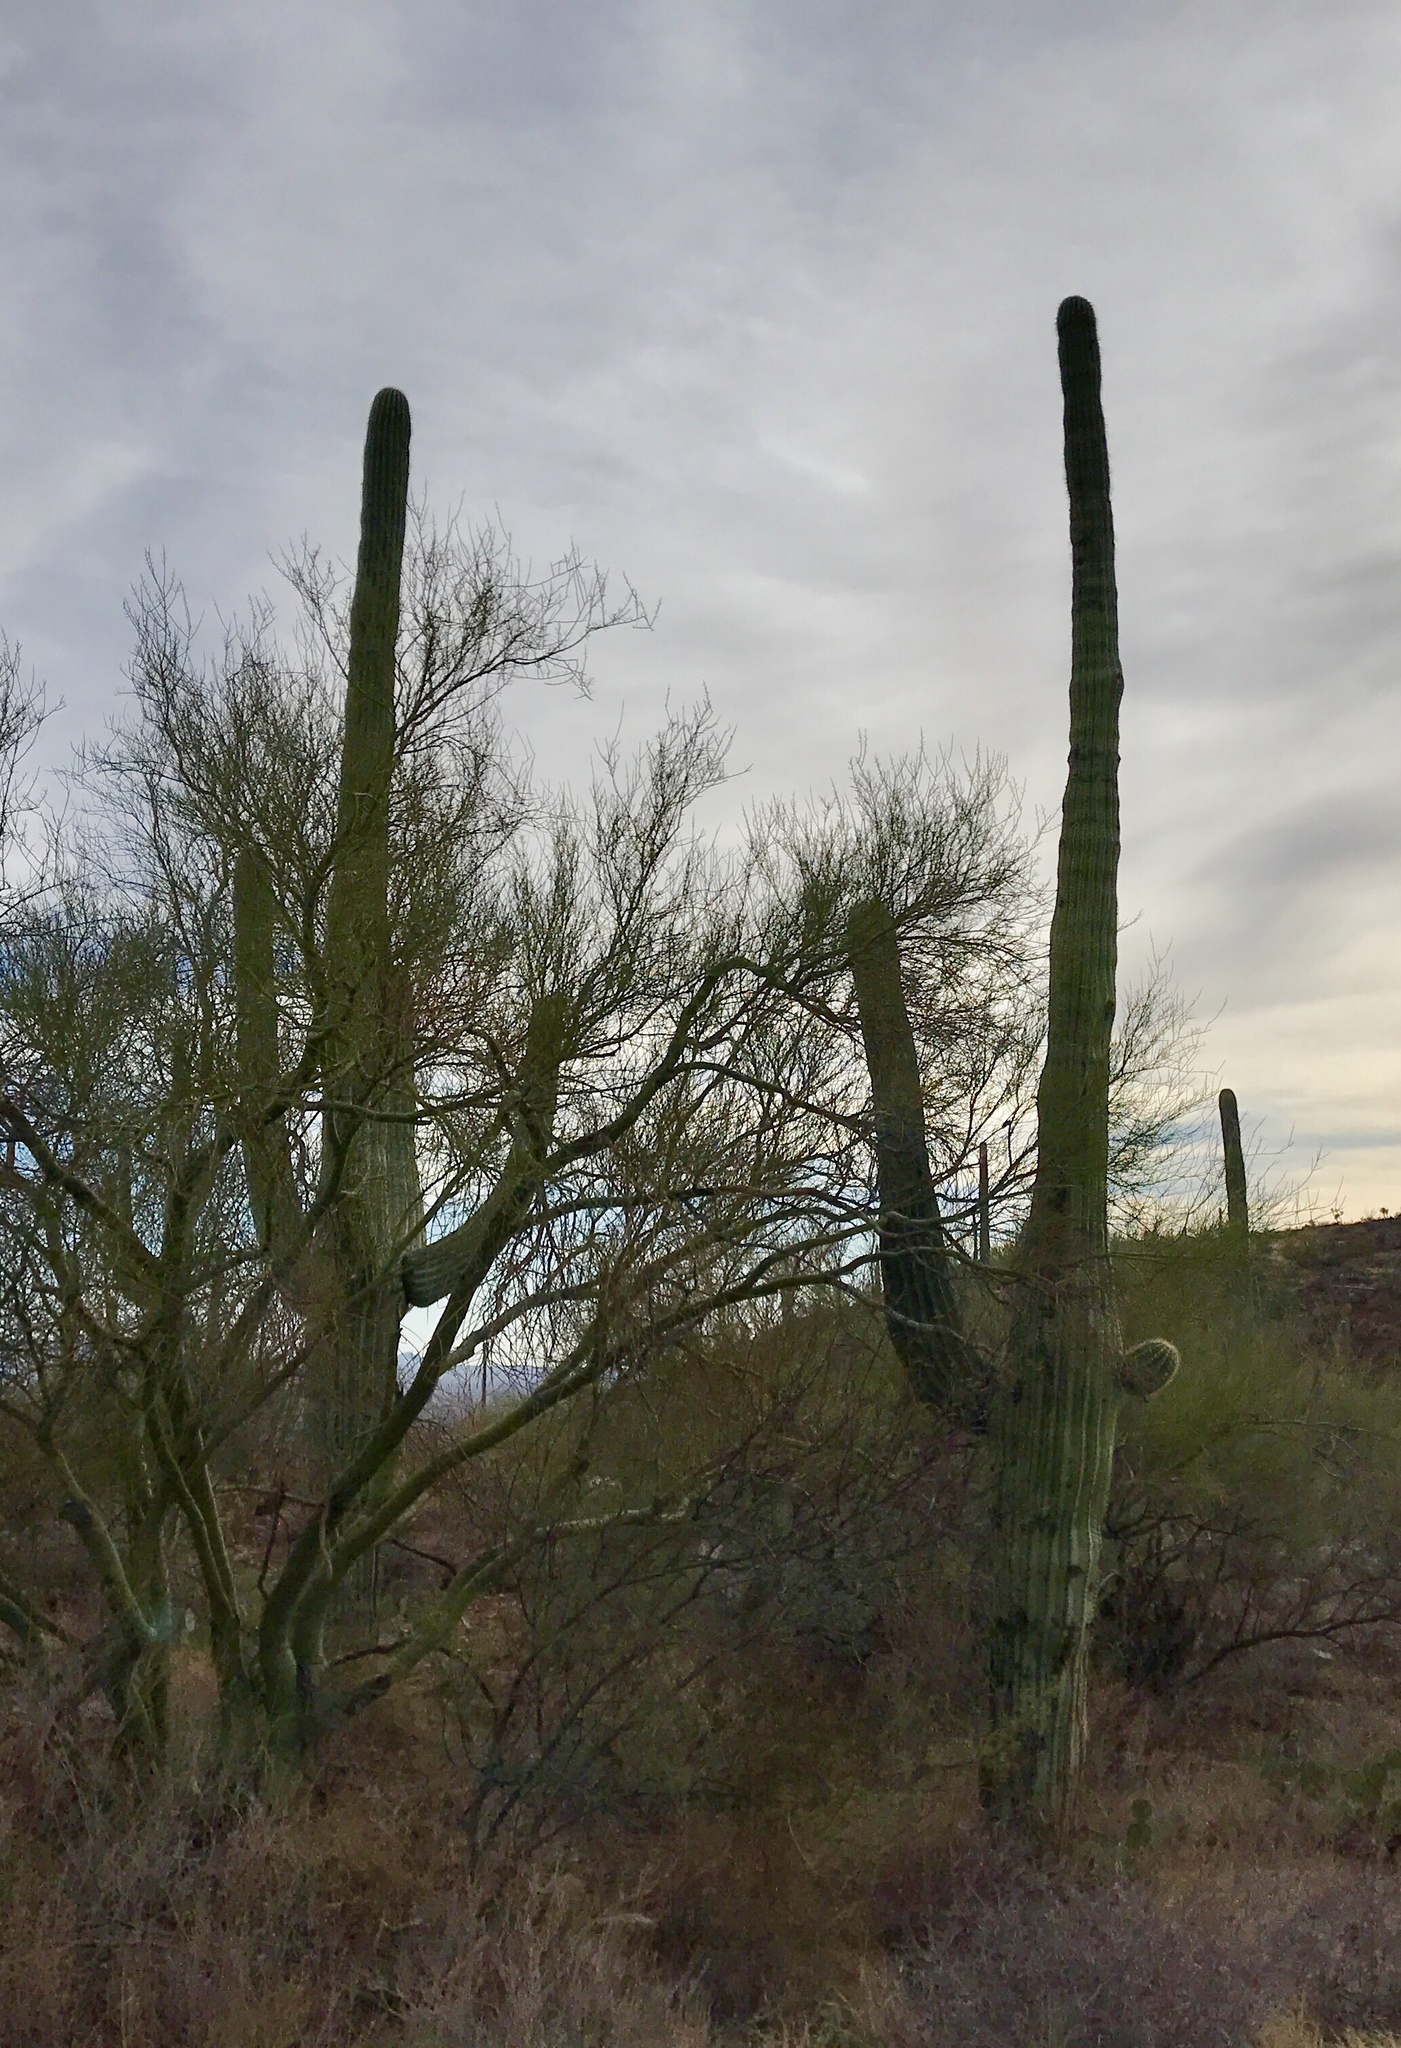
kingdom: Plantae
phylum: Tracheophyta
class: Magnoliopsida
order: Caryophyllales
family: Cactaceae
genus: Carnegiea
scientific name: Carnegiea gigantea
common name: Saguaro
